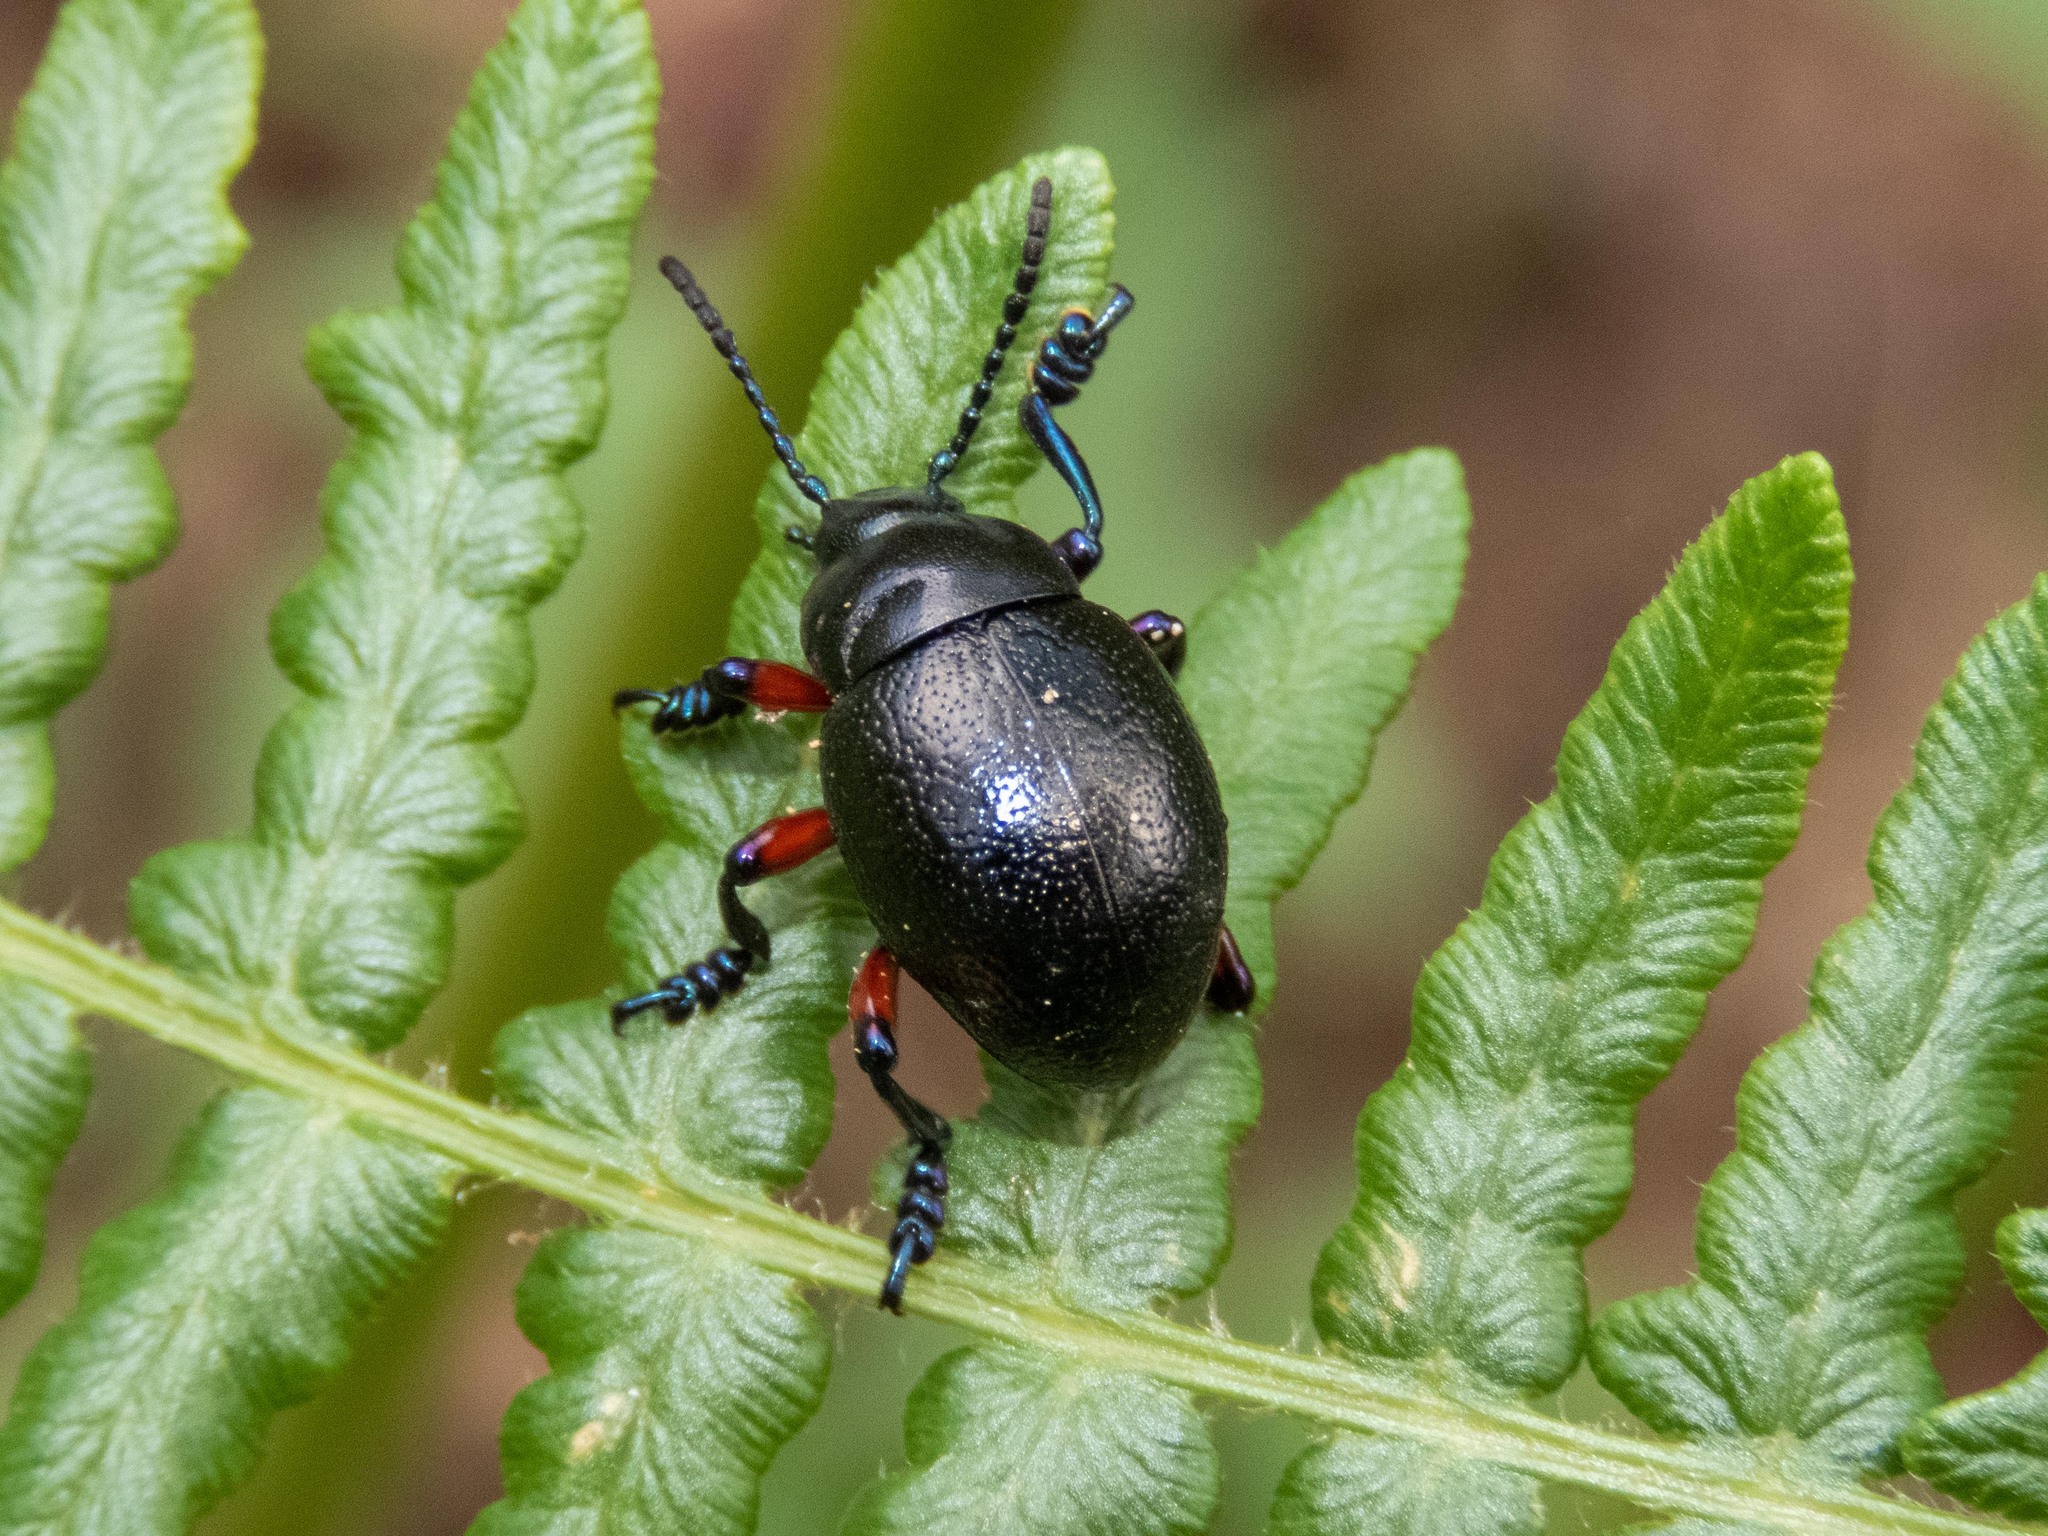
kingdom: Animalia
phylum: Arthropoda
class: Insecta
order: Coleoptera
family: Chrysomelidae
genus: Timarcha
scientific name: Timarcha gougeleti
